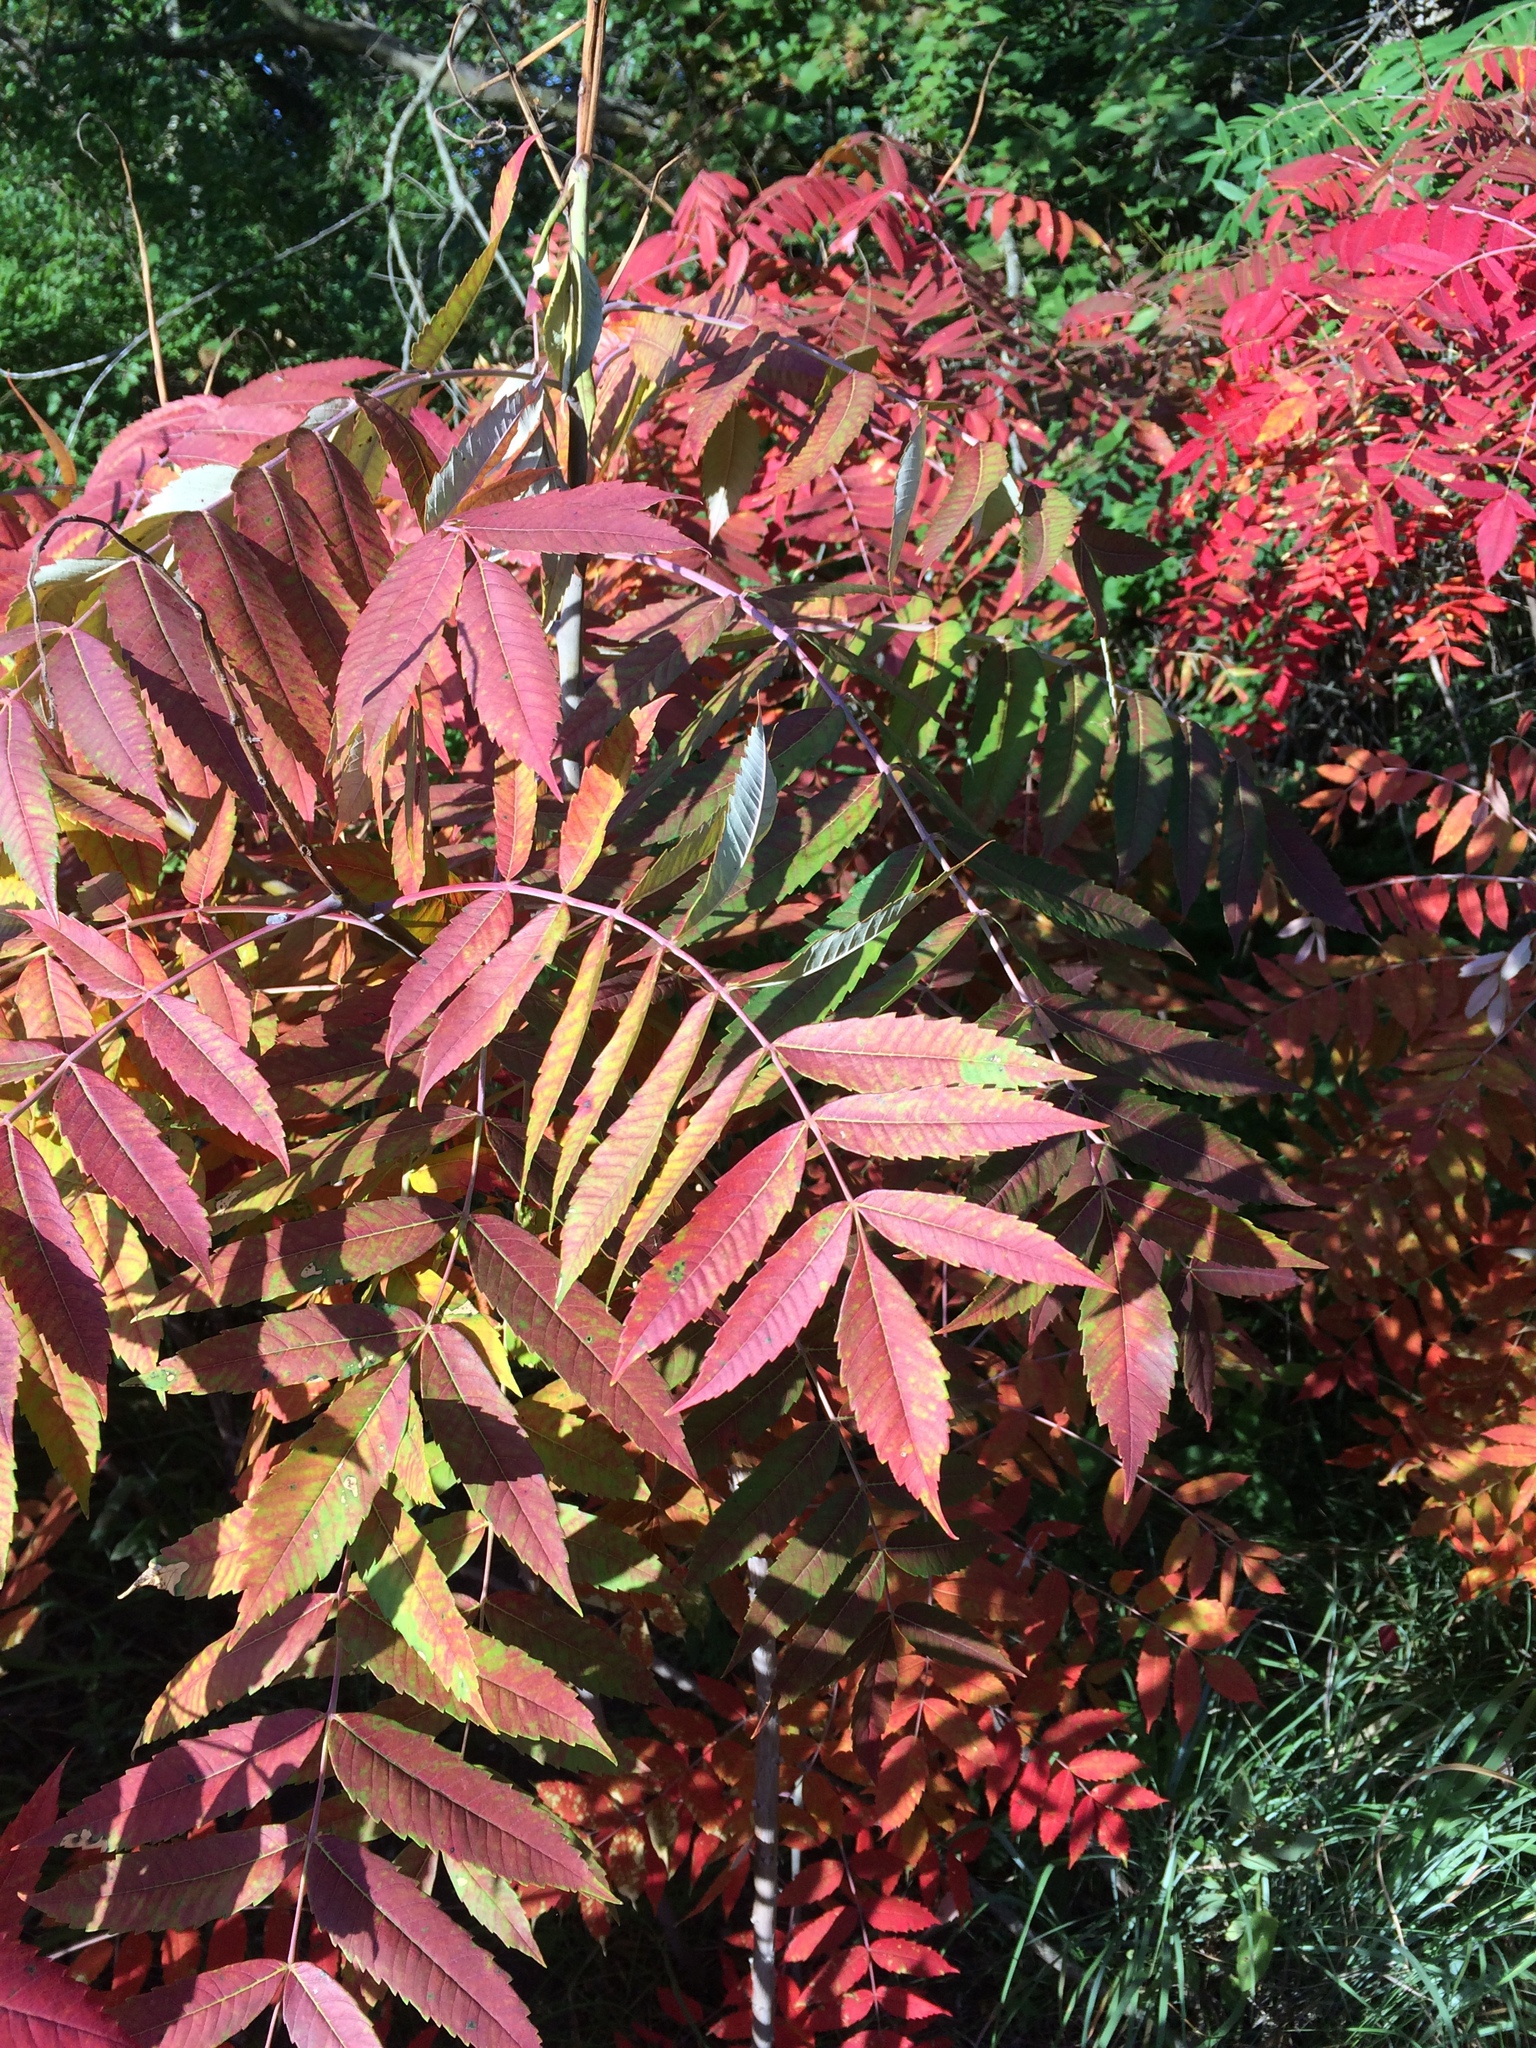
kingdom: Plantae
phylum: Tracheophyta
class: Magnoliopsida
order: Sapindales
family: Anacardiaceae
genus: Rhus
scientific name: Rhus glabra
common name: Scarlet sumac
